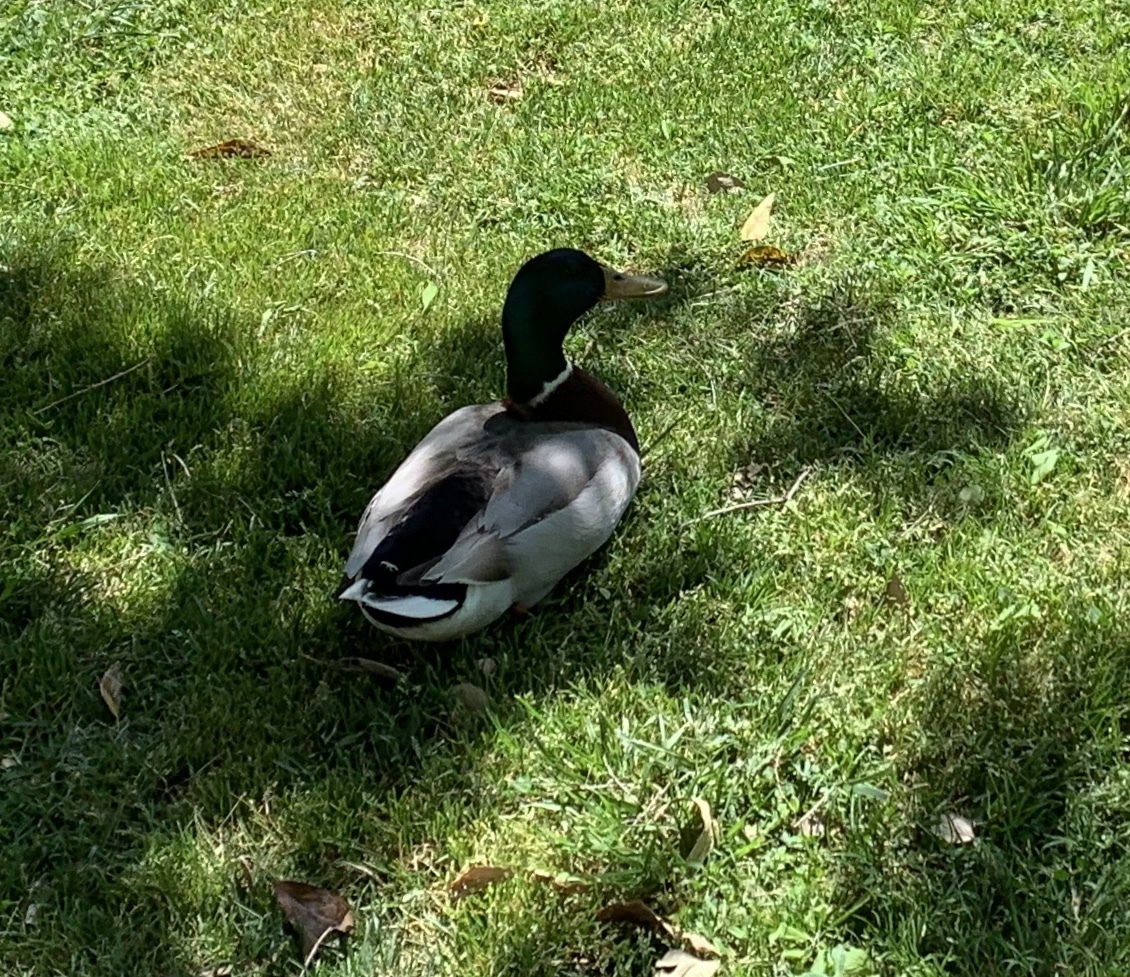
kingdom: Animalia
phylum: Chordata
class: Aves
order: Anseriformes
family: Anatidae
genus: Anas
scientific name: Anas platyrhynchos
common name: Mallard
